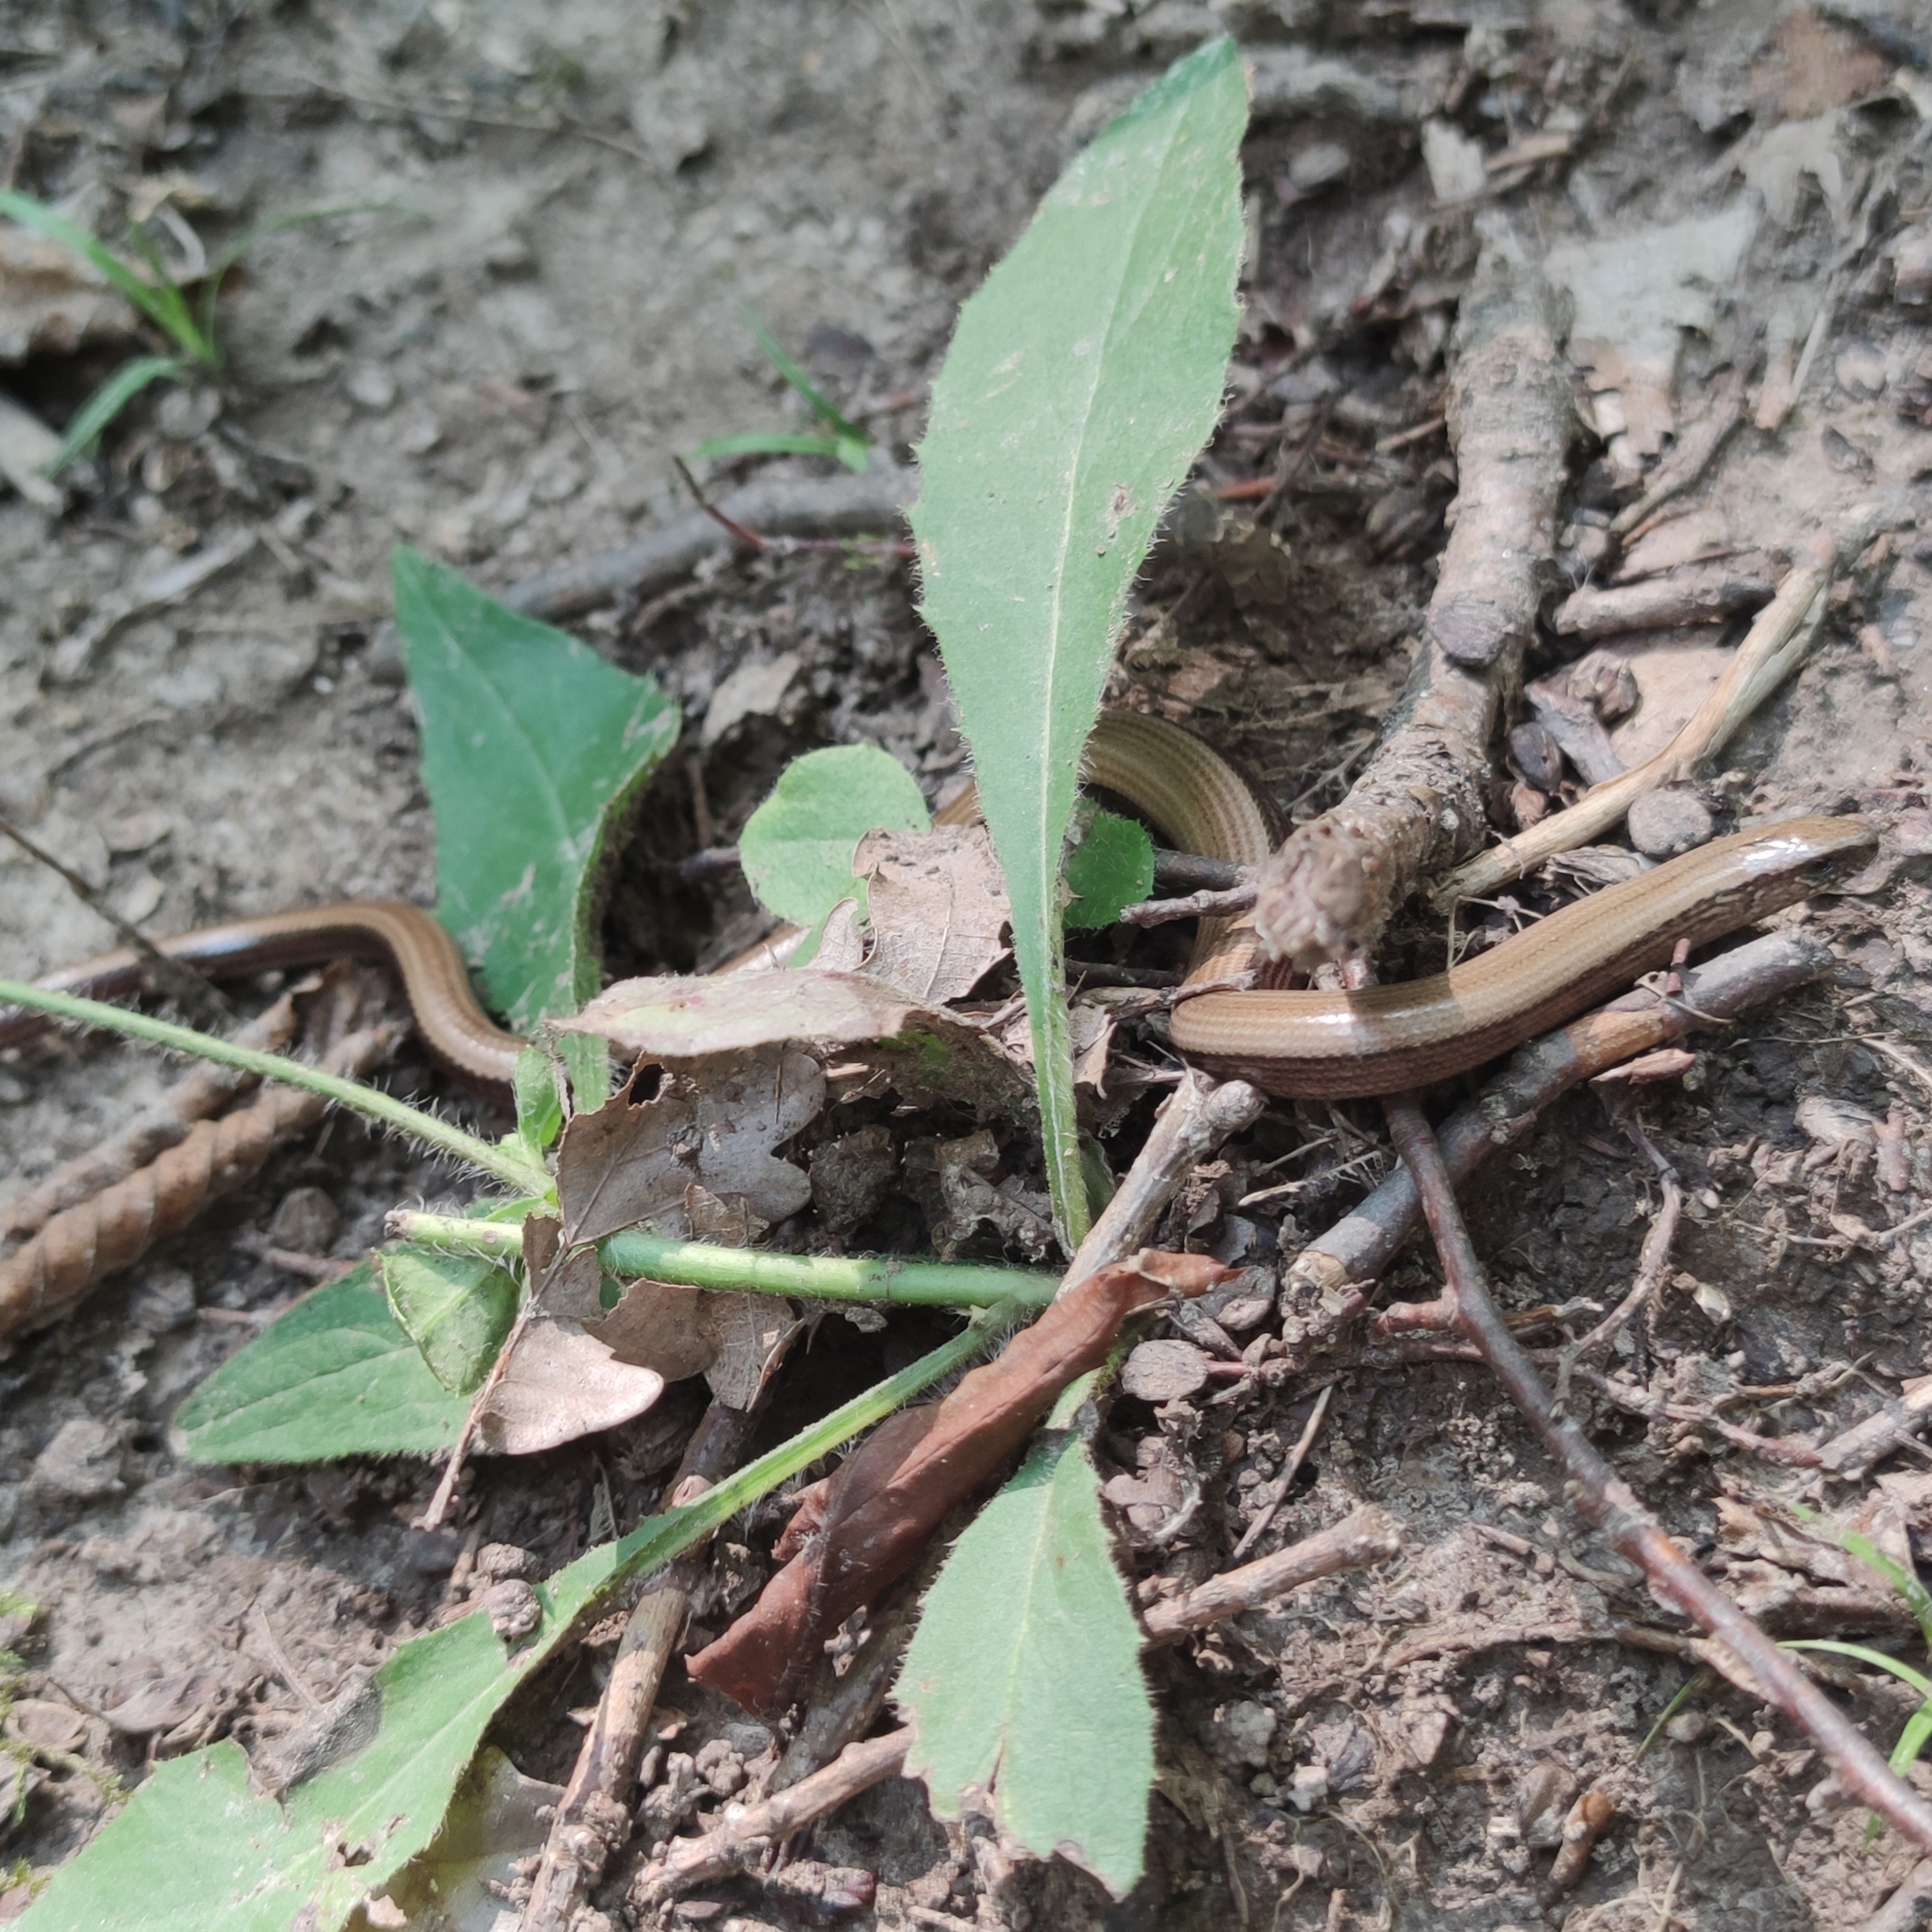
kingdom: Animalia
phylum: Chordata
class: Squamata
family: Anguidae
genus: Anguis
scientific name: Anguis fragilis
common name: Slow worm
